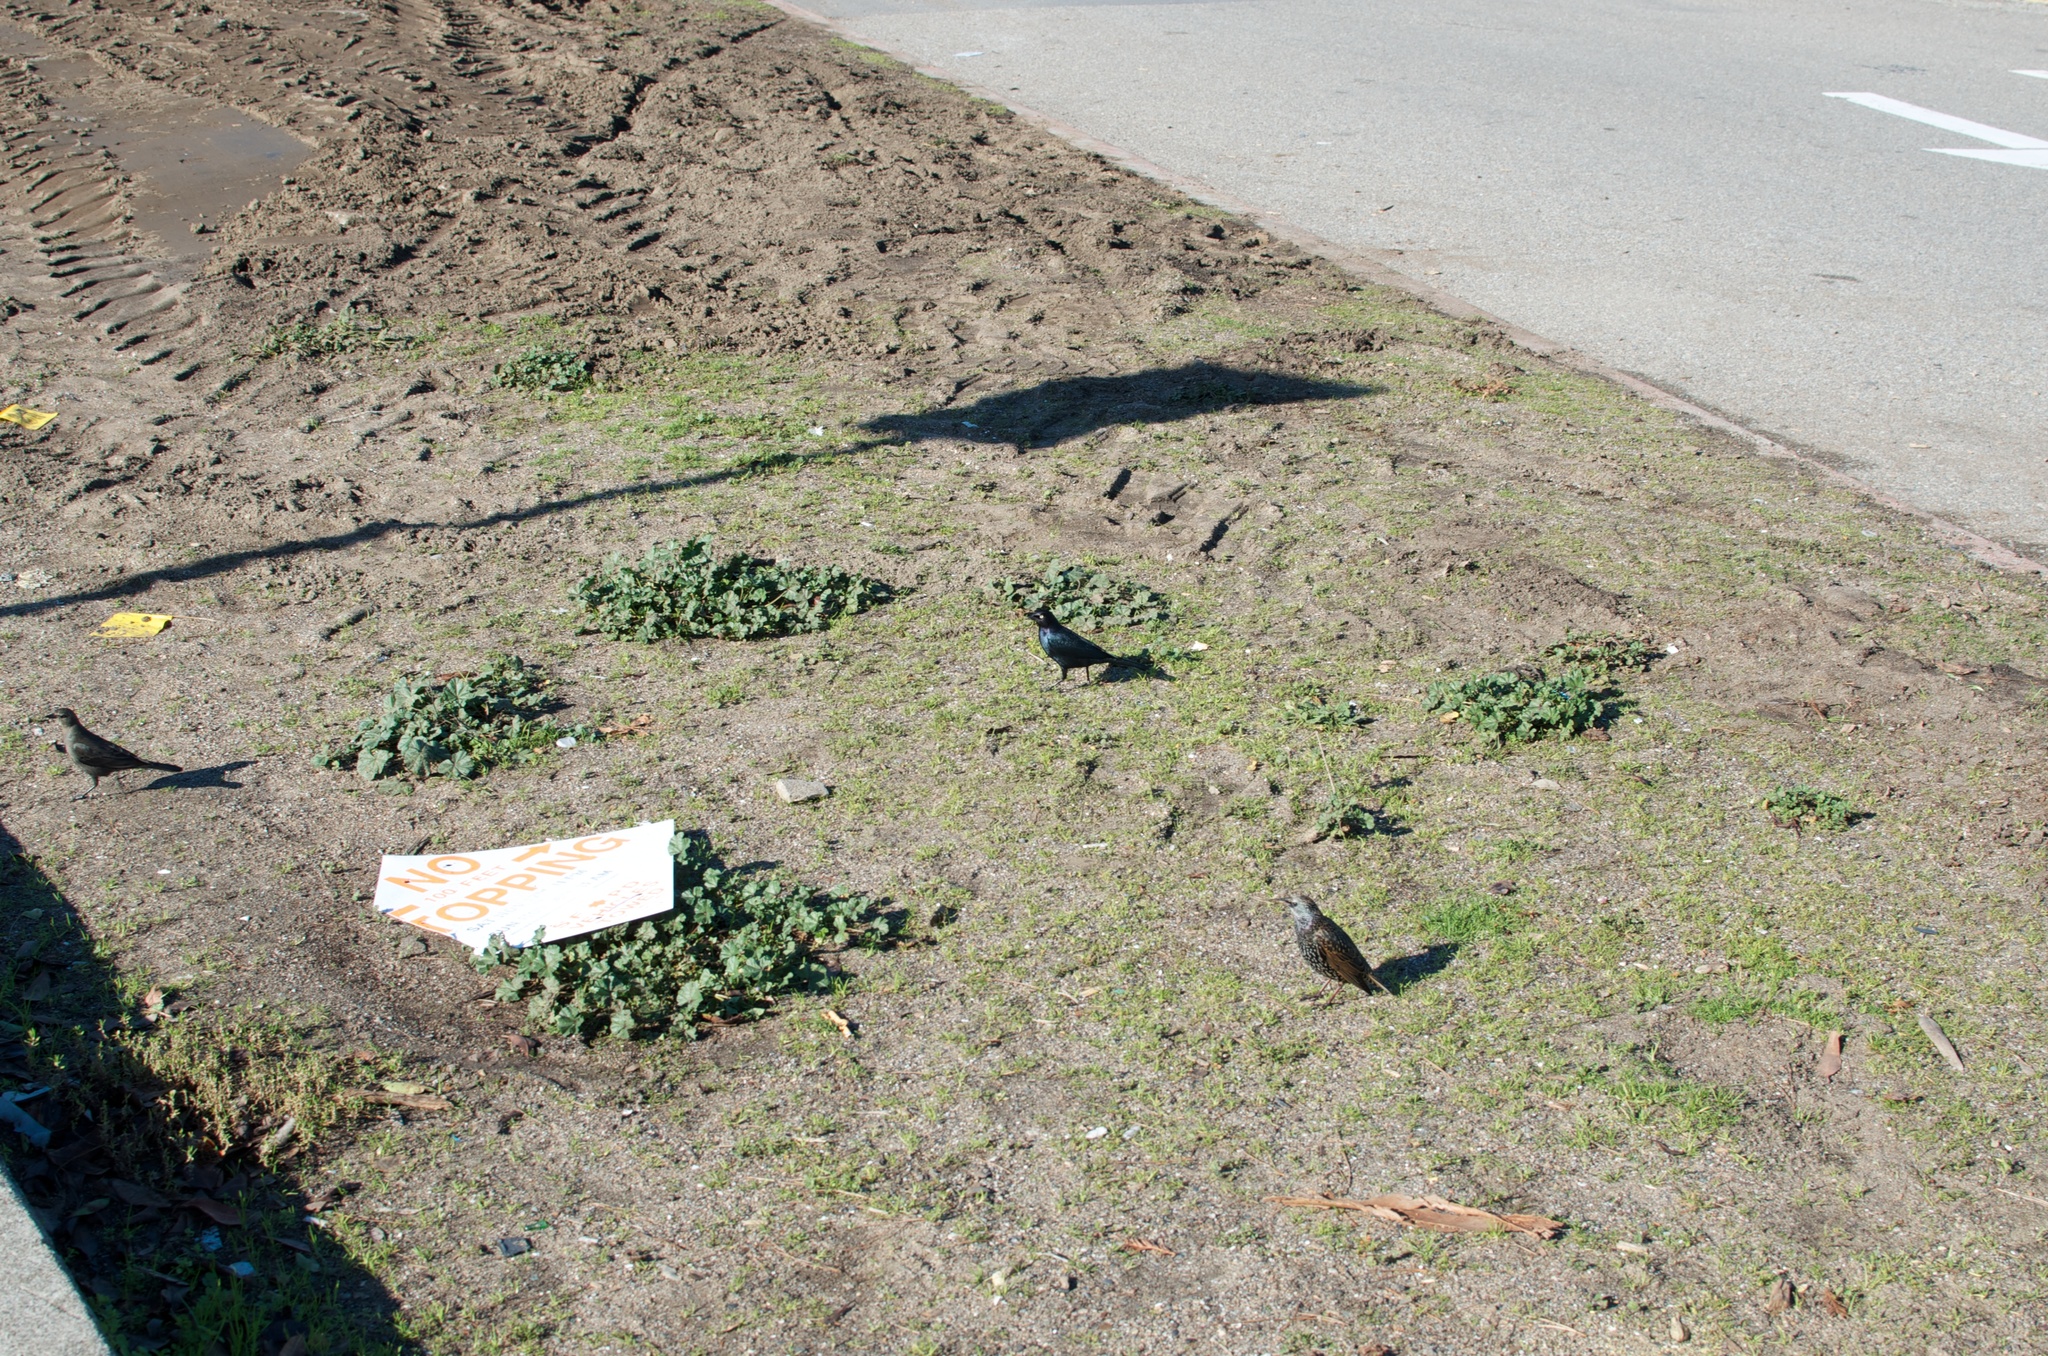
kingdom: Animalia
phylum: Chordata
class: Aves
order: Passeriformes
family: Sturnidae
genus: Sturnus
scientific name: Sturnus vulgaris
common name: Common starling
